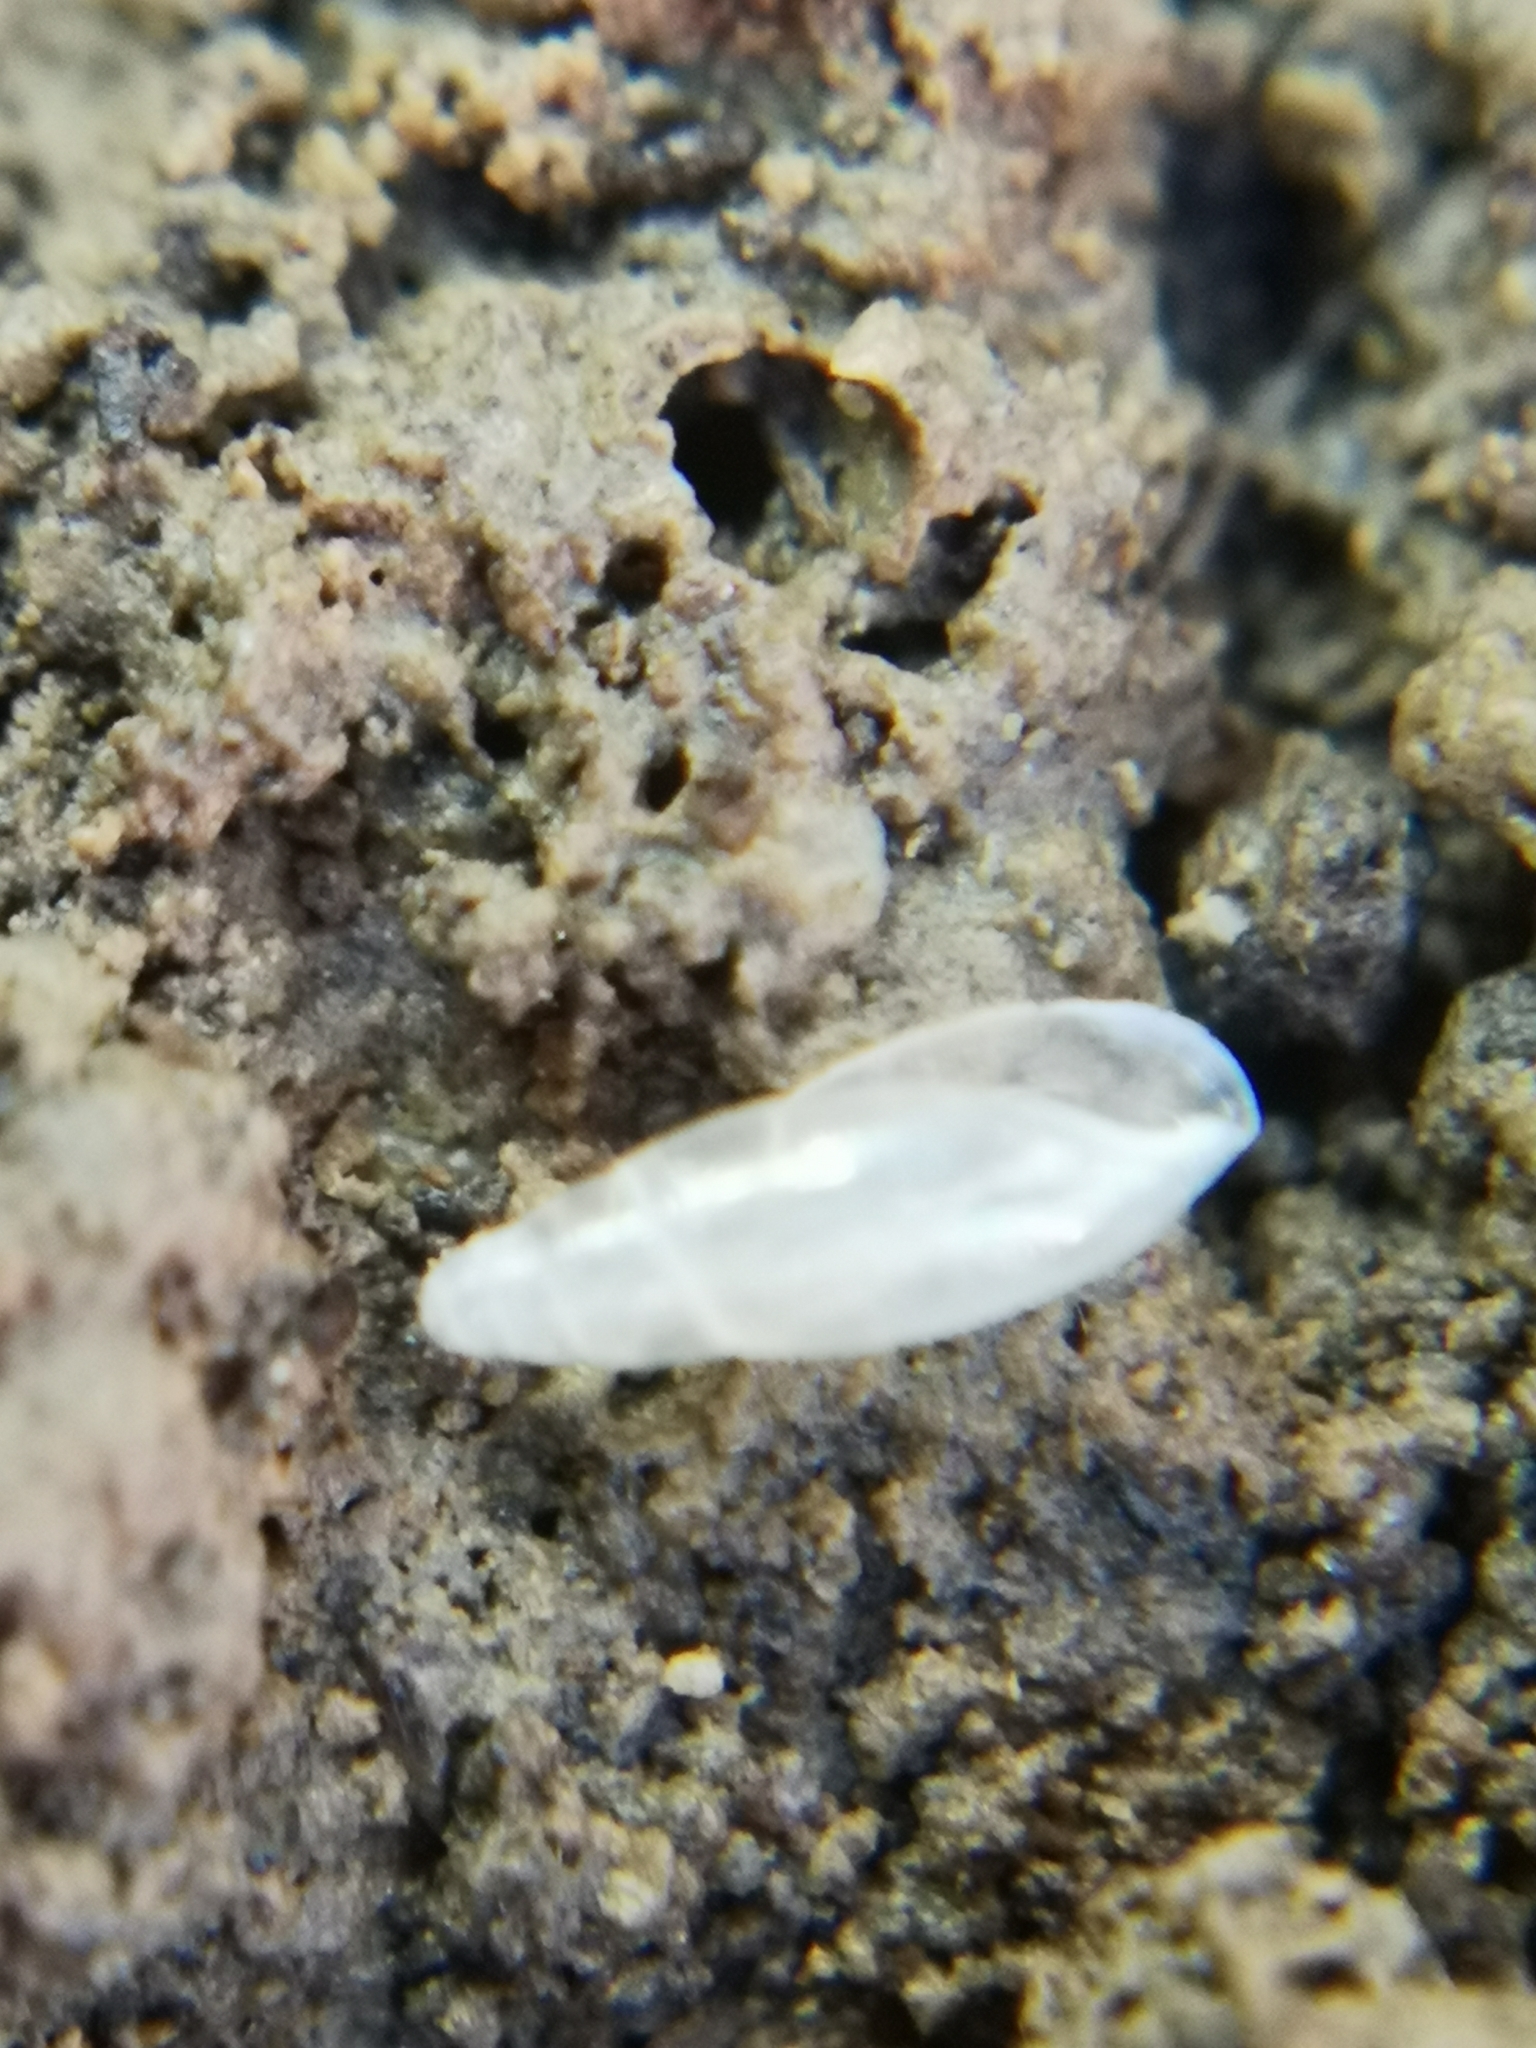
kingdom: Animalia
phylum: Mollusca
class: Gastropoda
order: Stylommatophora
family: Ferussaciidae
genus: Cecilioides
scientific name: Cecilioides veneta
